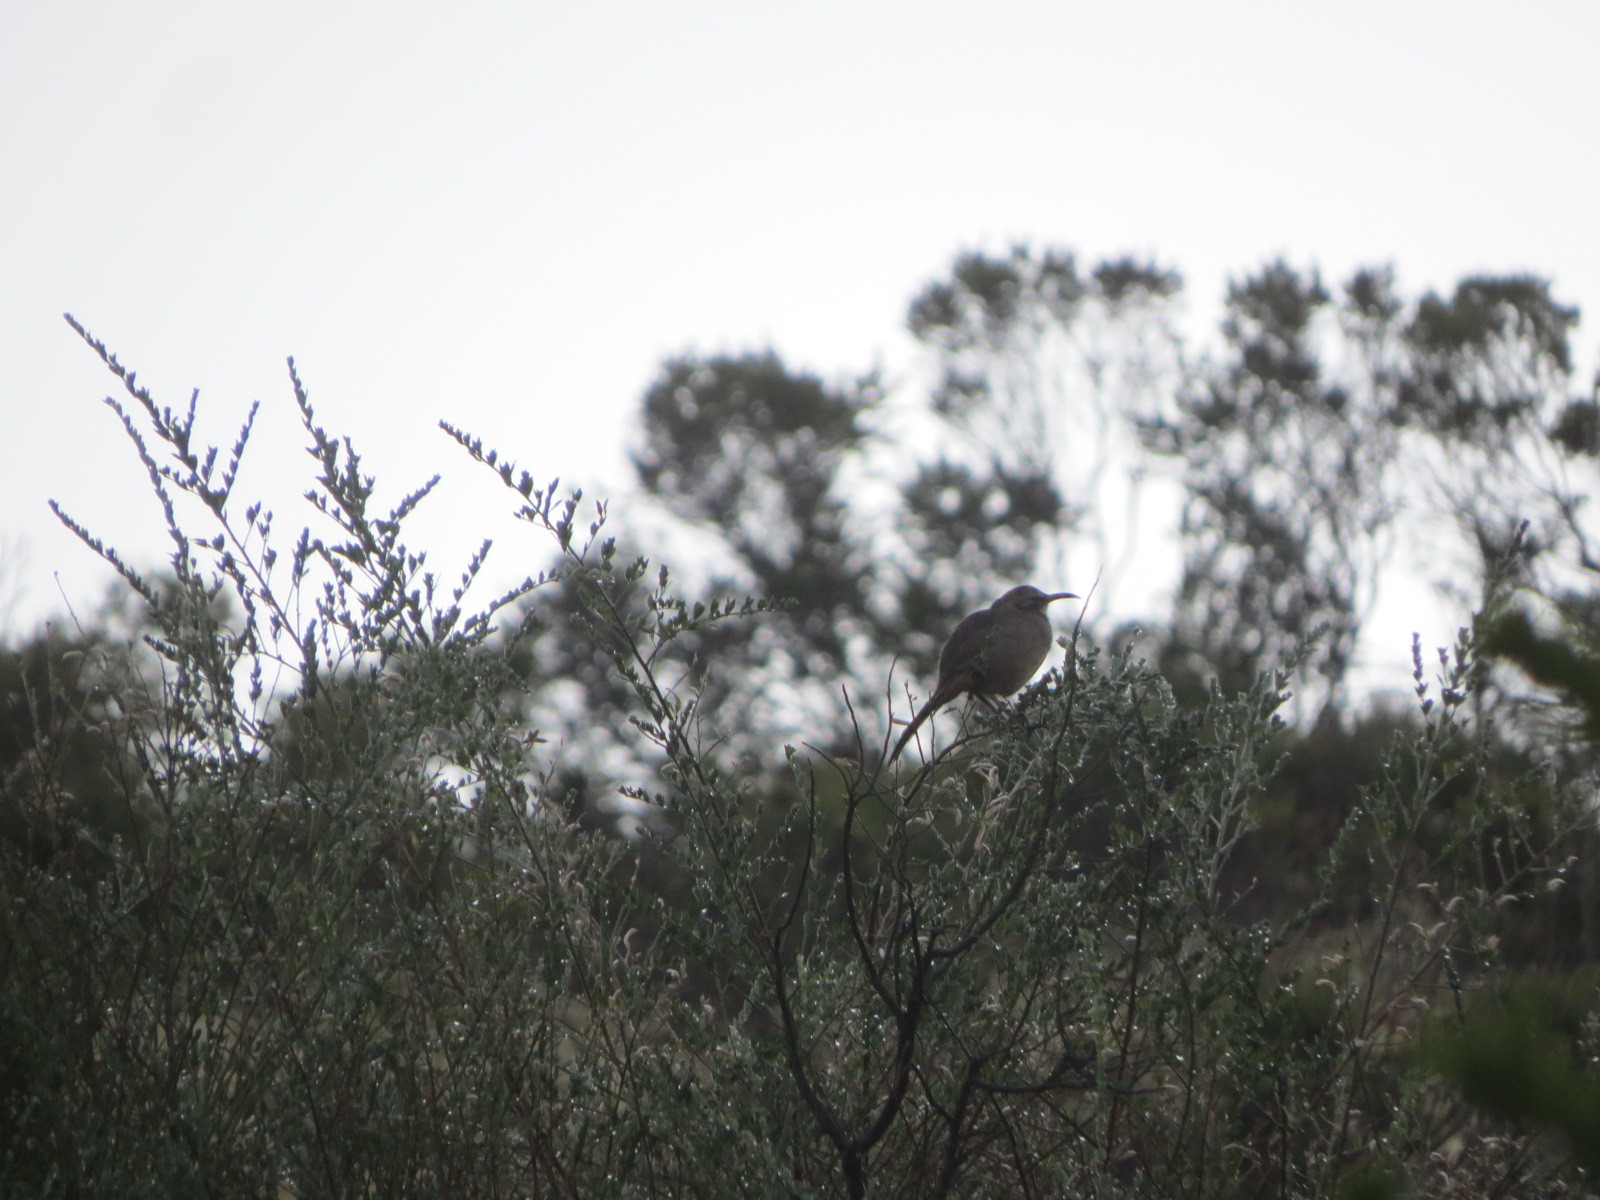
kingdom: Animalia
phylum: Chordata
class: Aves
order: Passeriformes
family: Mimidae
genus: Toxostoma
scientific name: Toxostoma redivivum
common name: California thrasher
